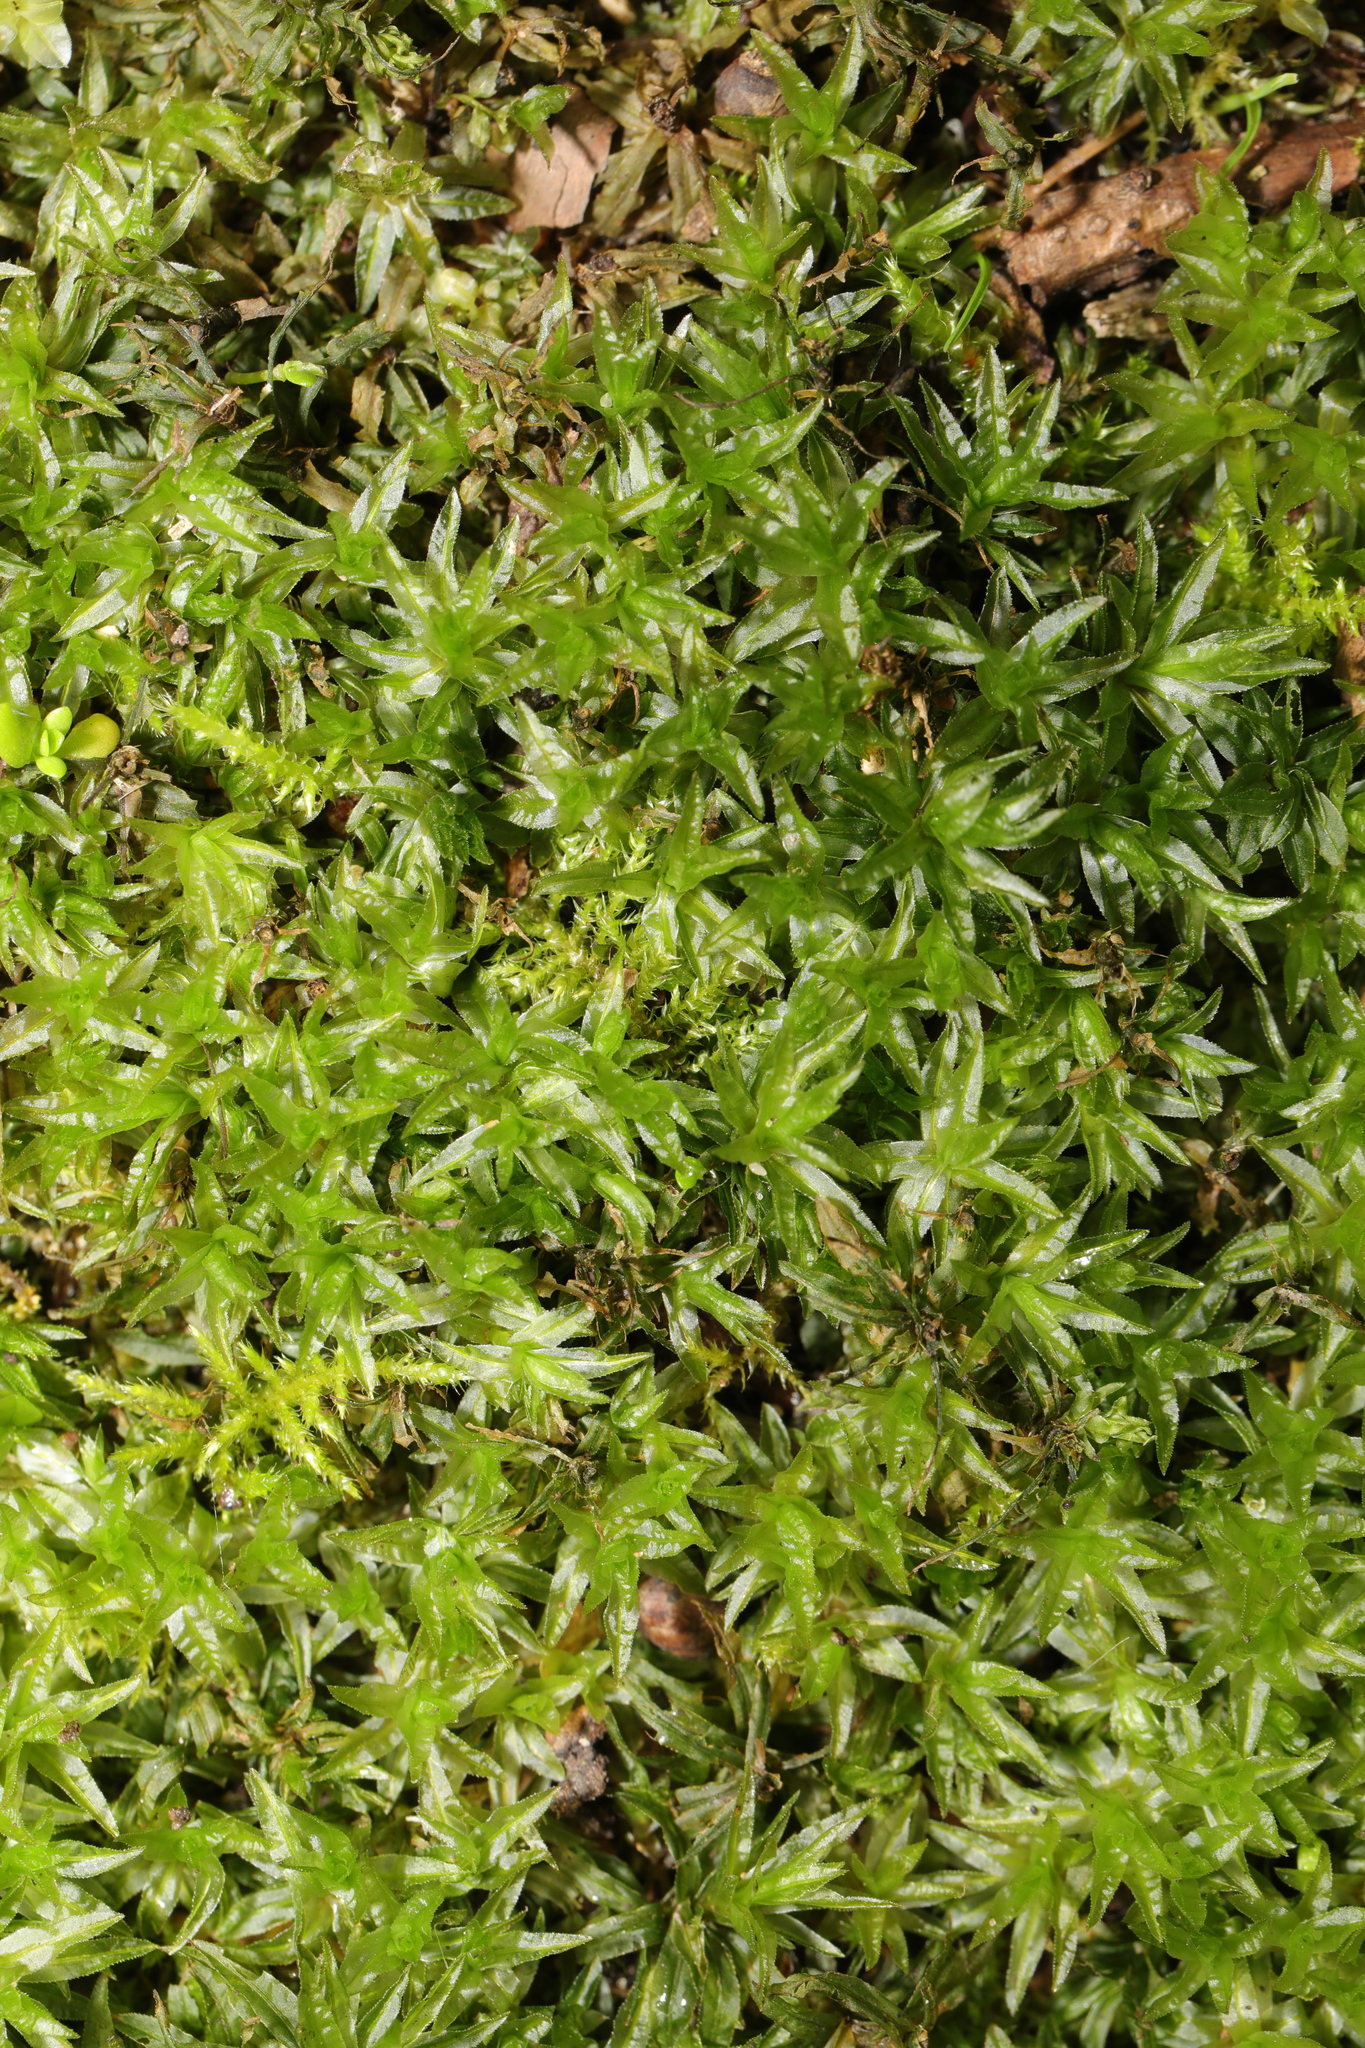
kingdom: Plantae
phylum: Bryophyta
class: Polytrichopsida
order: Polytrichales
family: Polytrichaceae
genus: Atrichum
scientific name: Atrichum undulatum
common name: Common smoothcap
